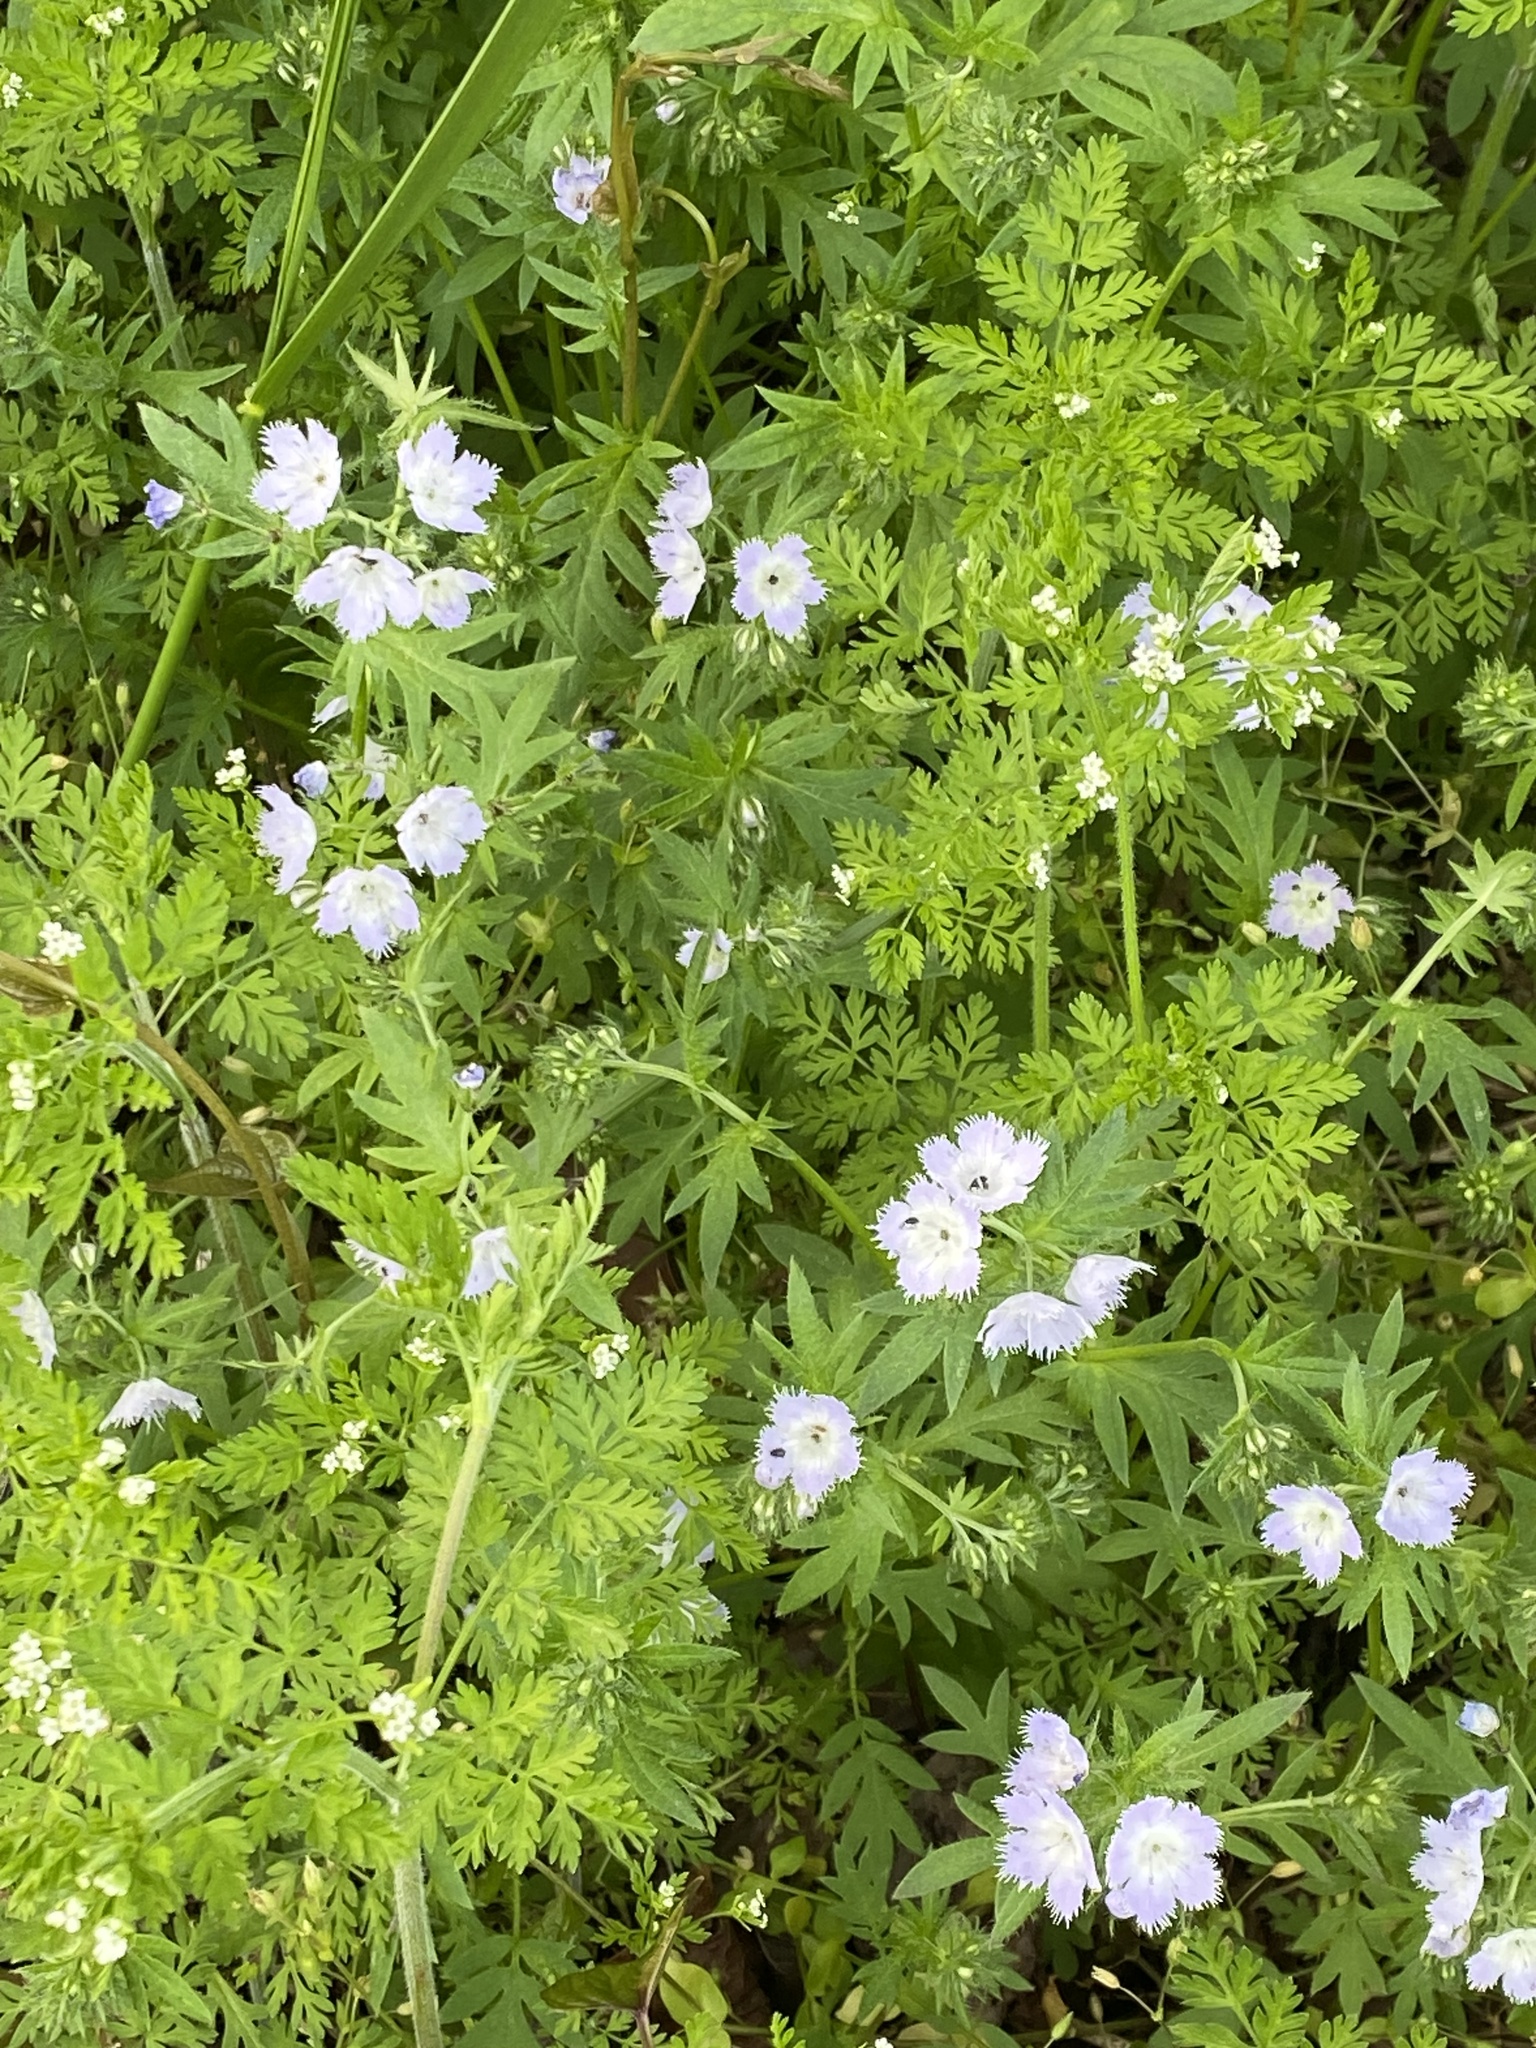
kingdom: Plantae
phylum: Tracheophyta
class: Magnoliopsida
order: Boraginales
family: Hydrophyllaceae
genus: Phacelia
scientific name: Phacelia purshii
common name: Miami-mist
